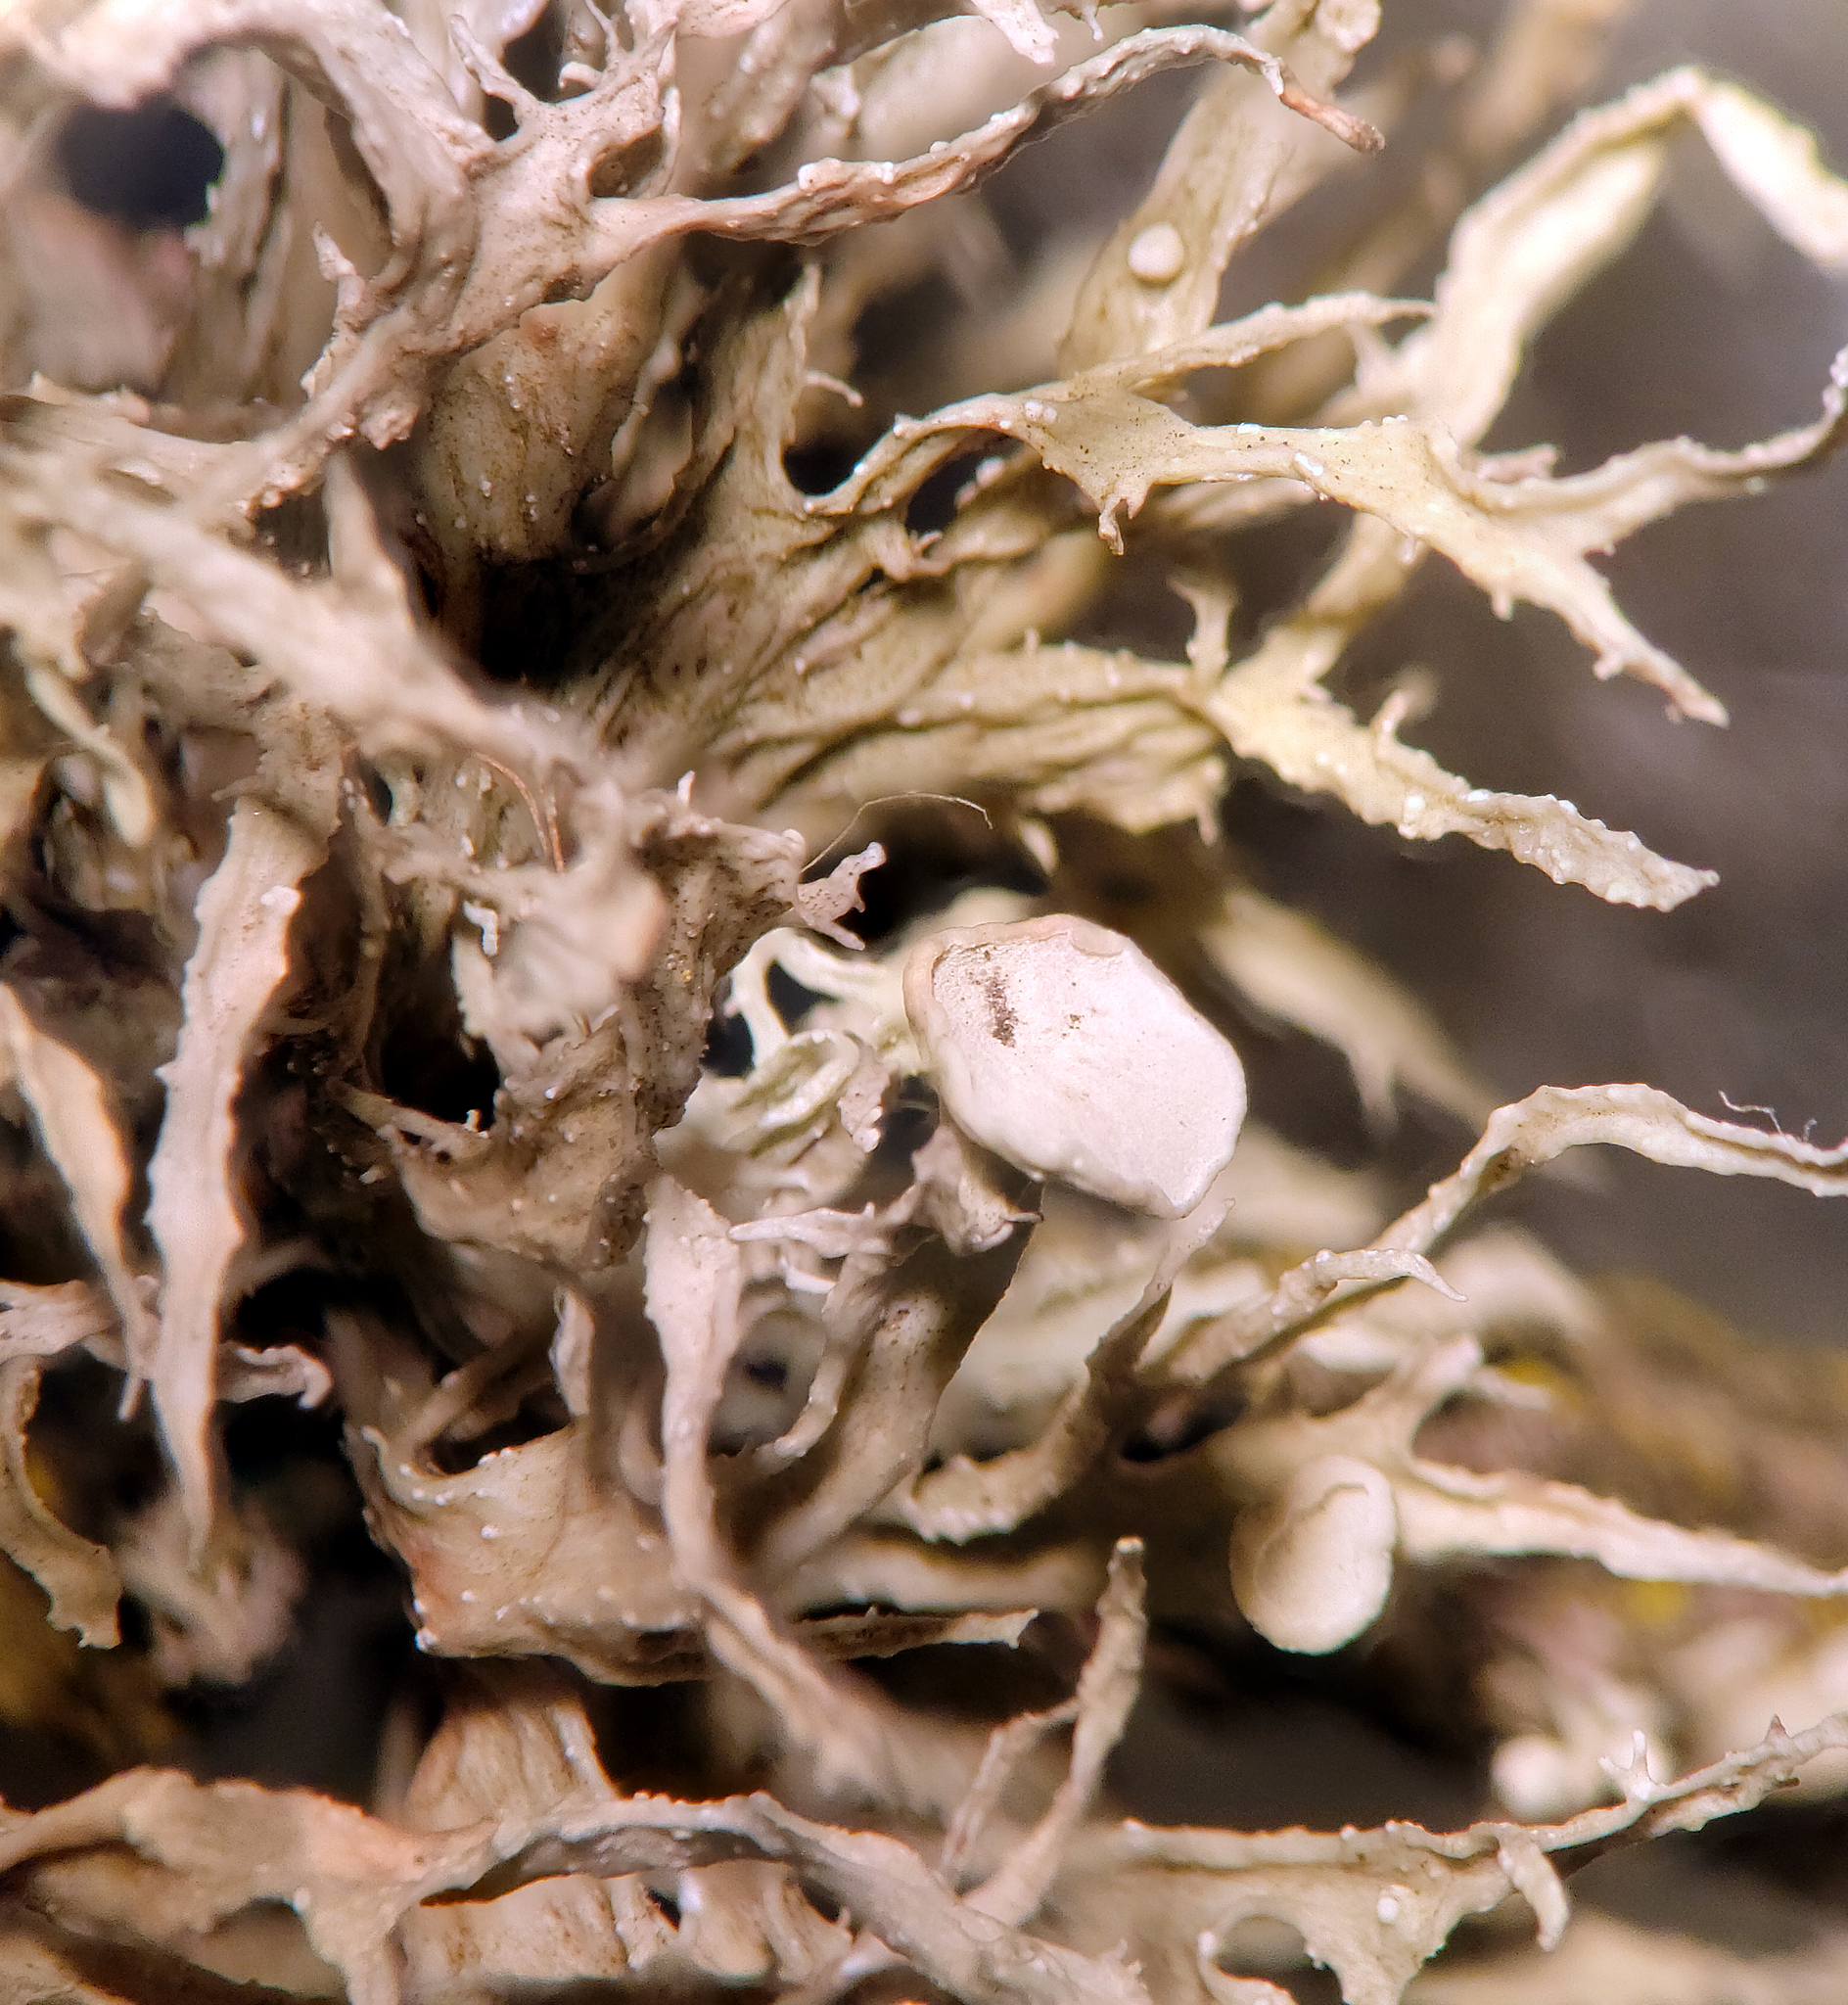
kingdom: Fungi
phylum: Ascomycota
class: Lecanoromycetes
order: Lecanorales
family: Ramalinaceae
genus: Ramalina
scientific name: Ramalina americana
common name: Sinewed bush lichen
